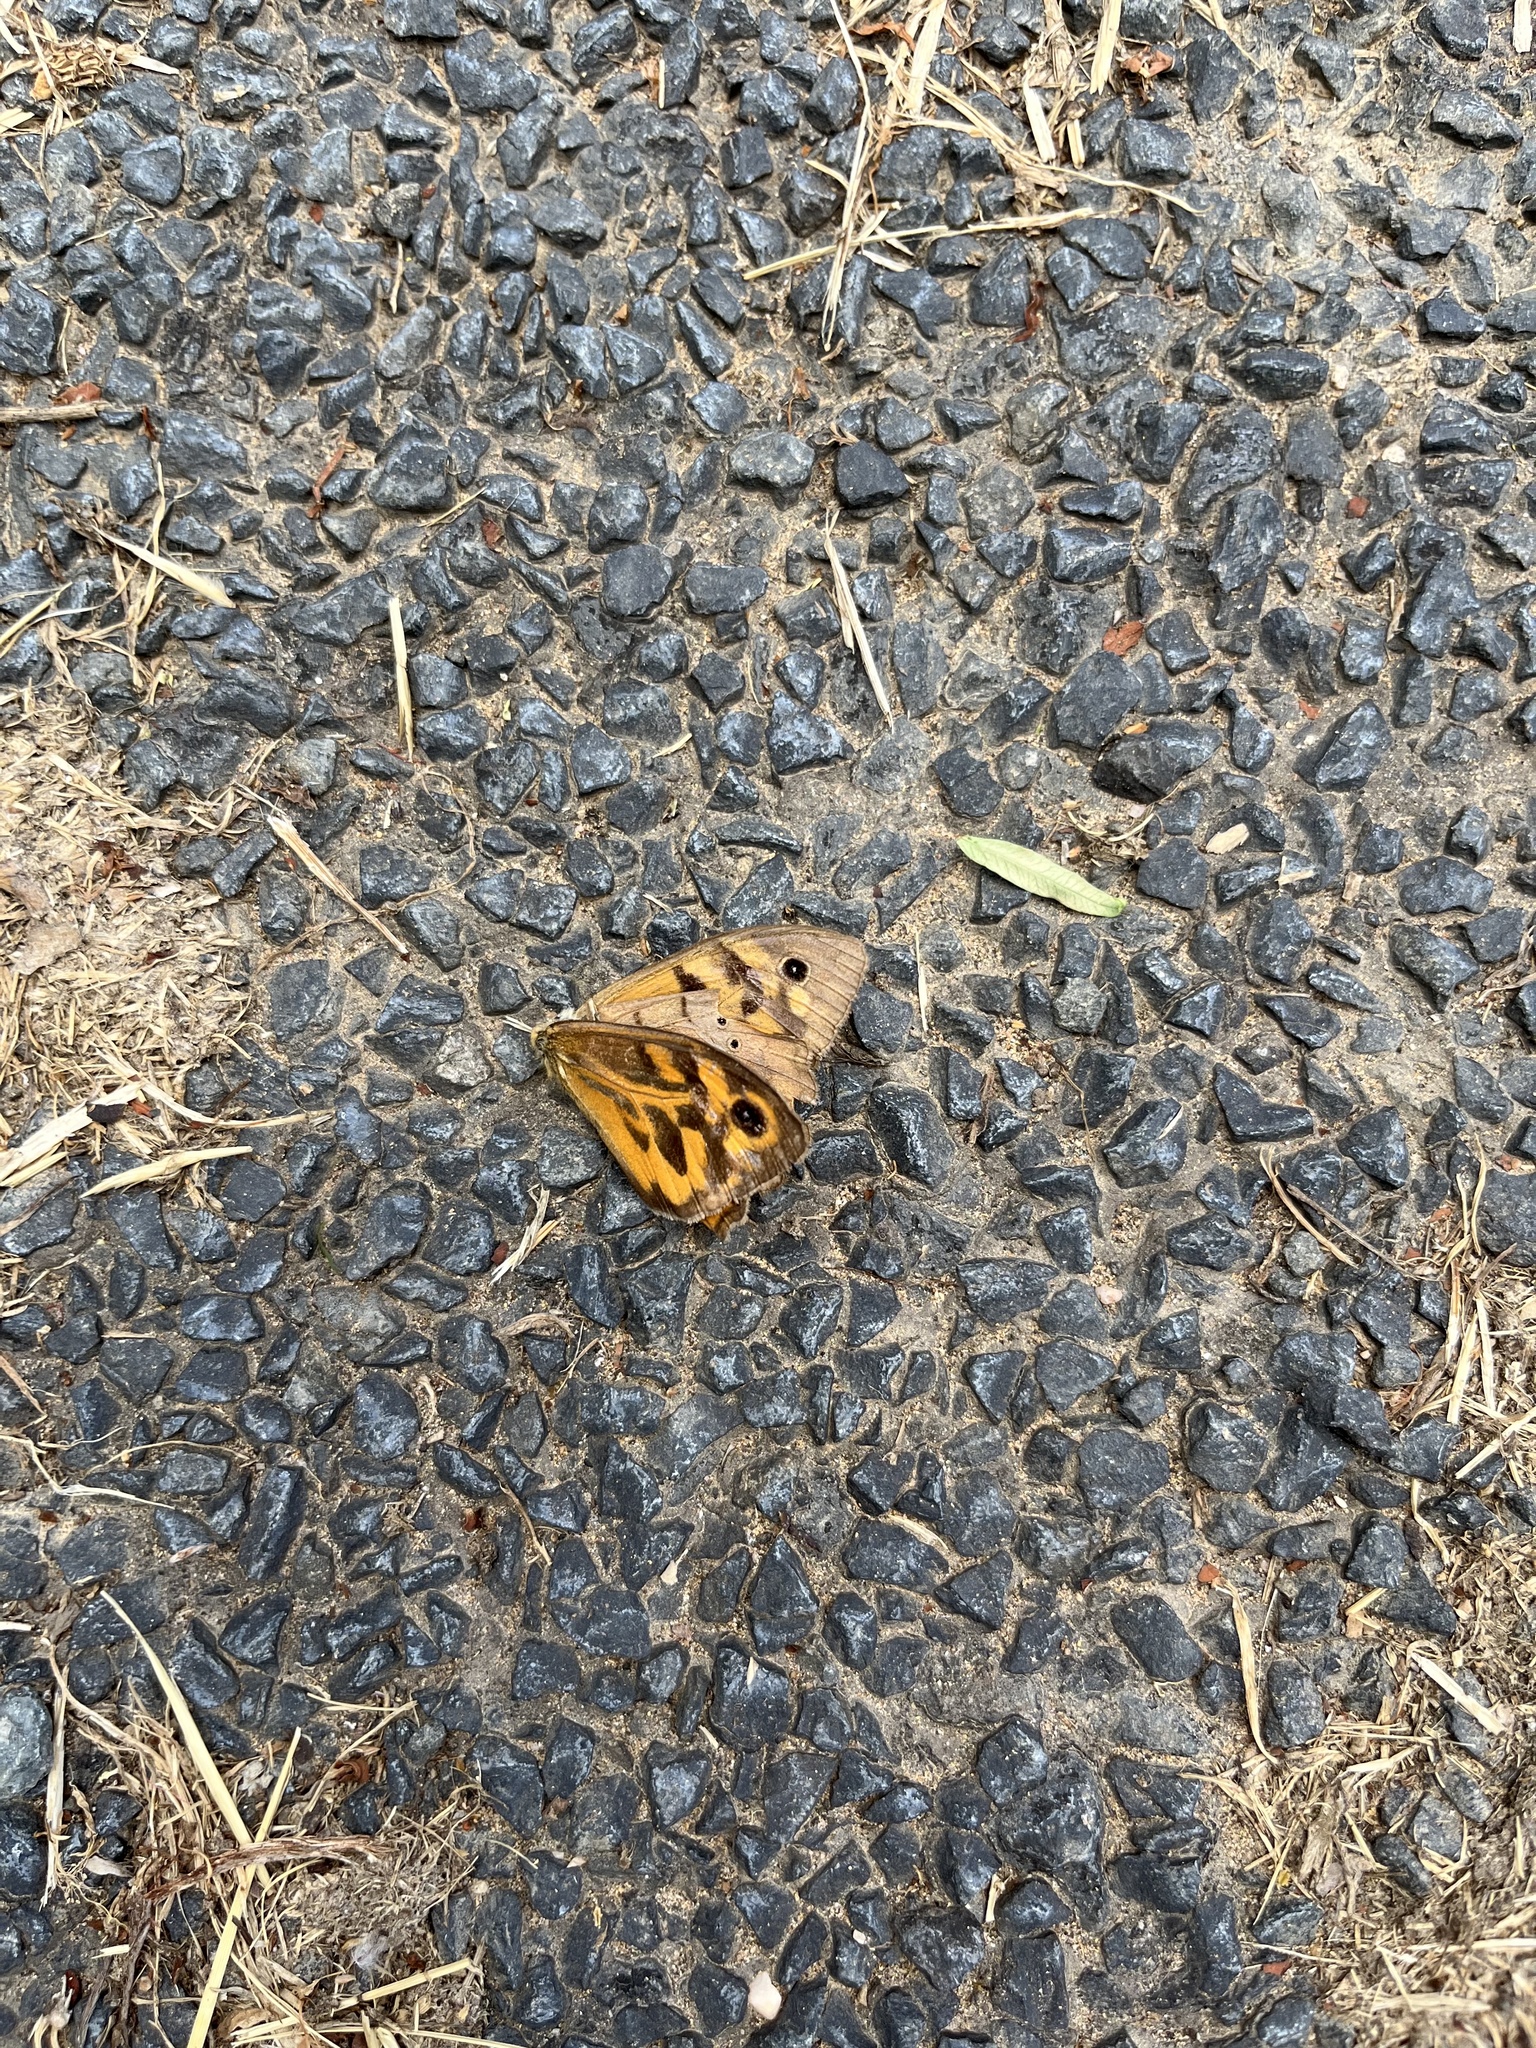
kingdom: Animalia
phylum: Arthropoda
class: Insecta
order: Lepidoptera
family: Nymphalidae
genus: Heteronympha
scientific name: Heteronympha merope
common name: Common brown
